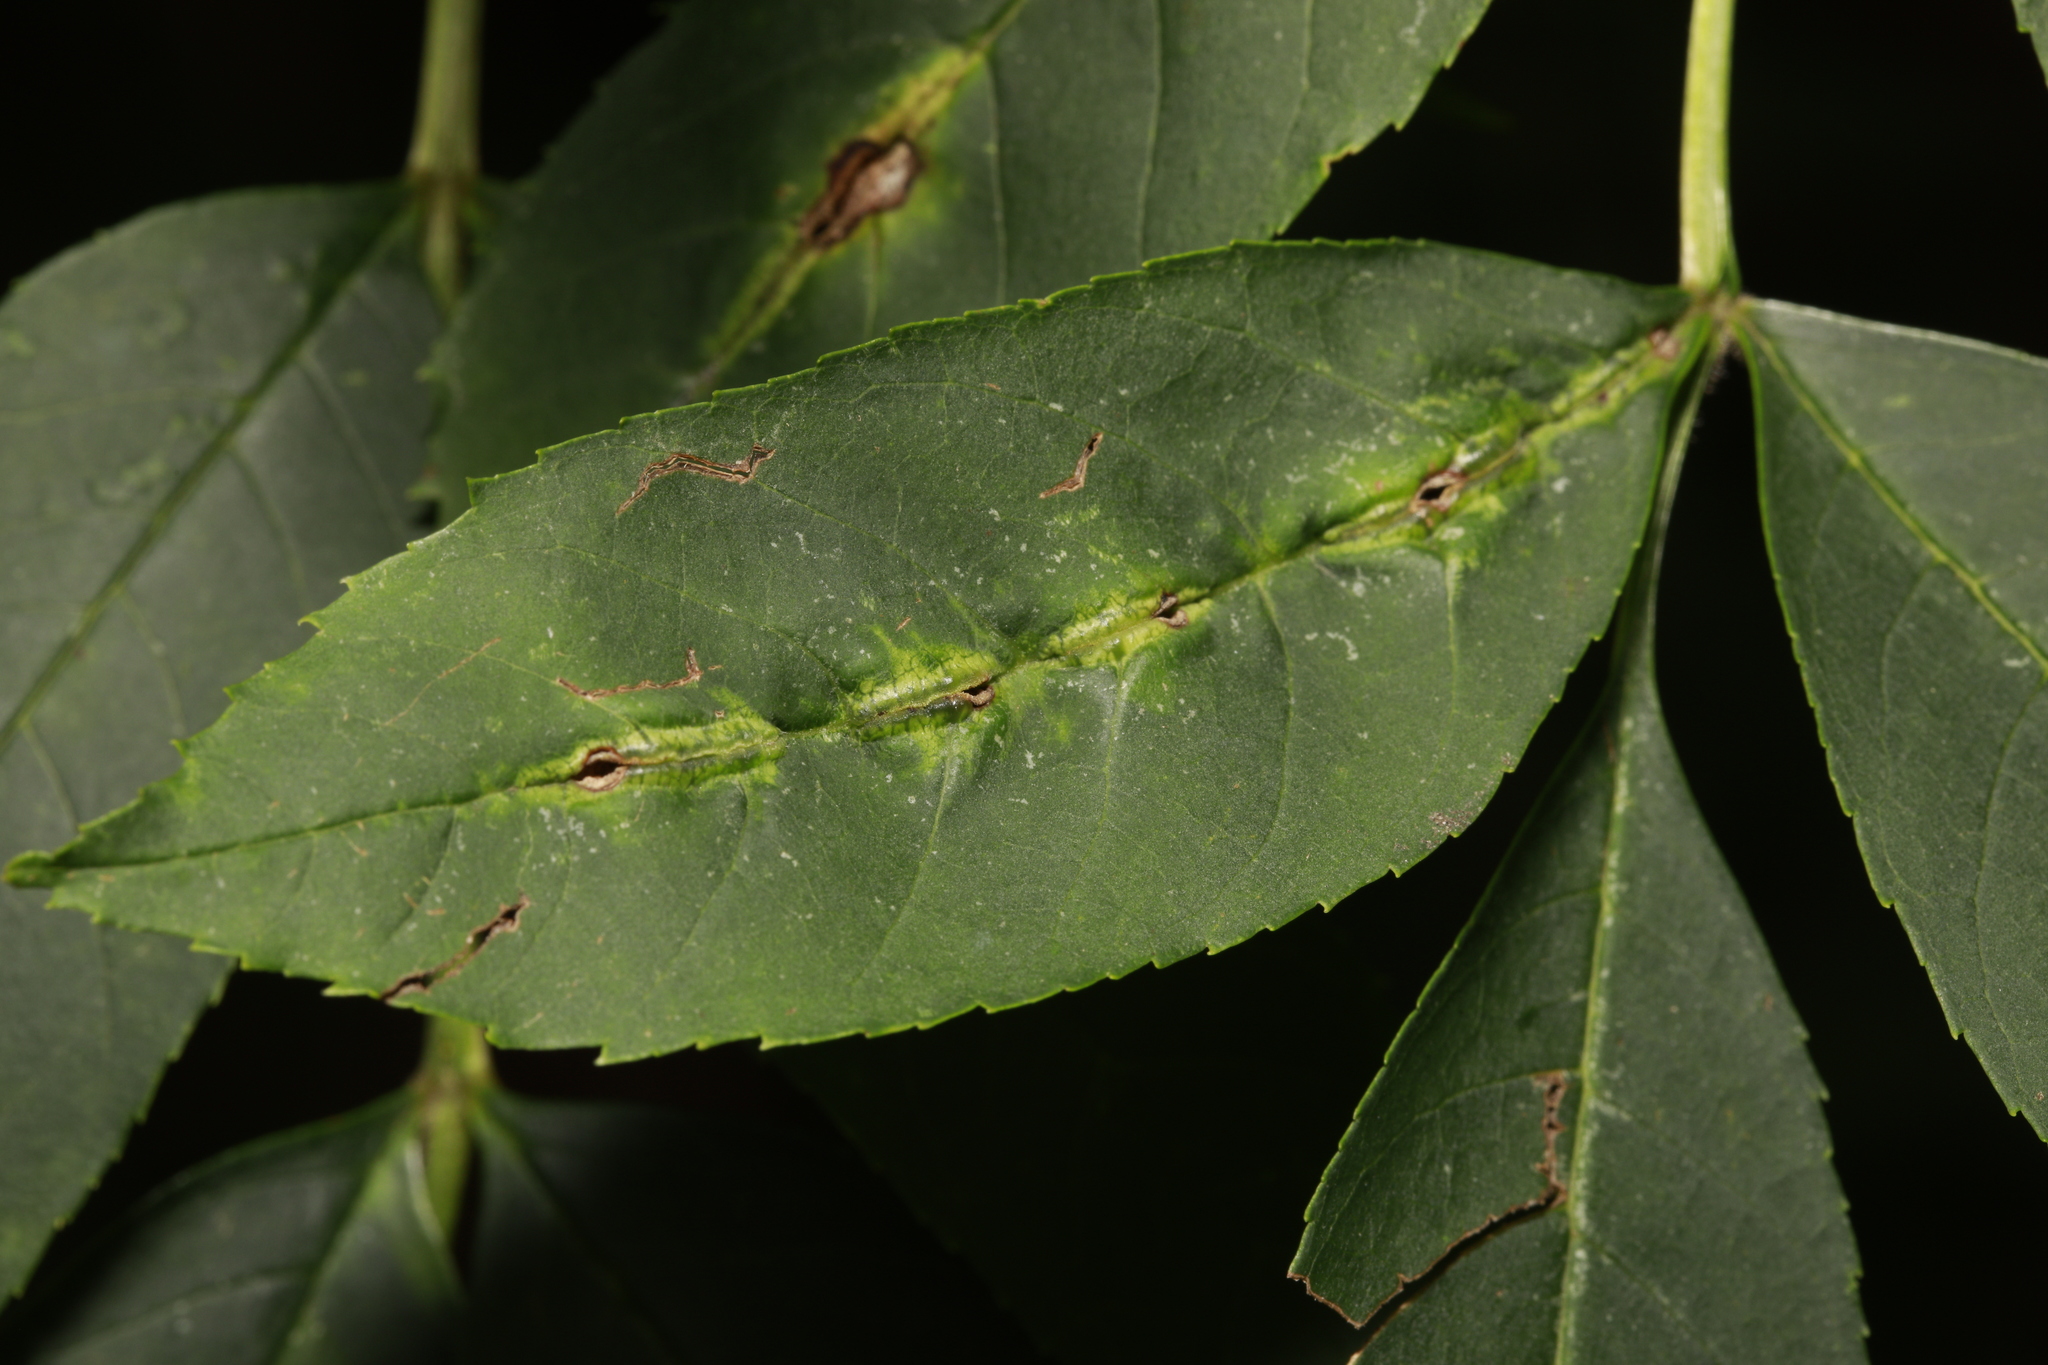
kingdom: Animalia
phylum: Arthropoda
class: Insecta
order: Diptera
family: Cecidomyiidae
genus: Dasineura
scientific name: Dasineura fraxini
